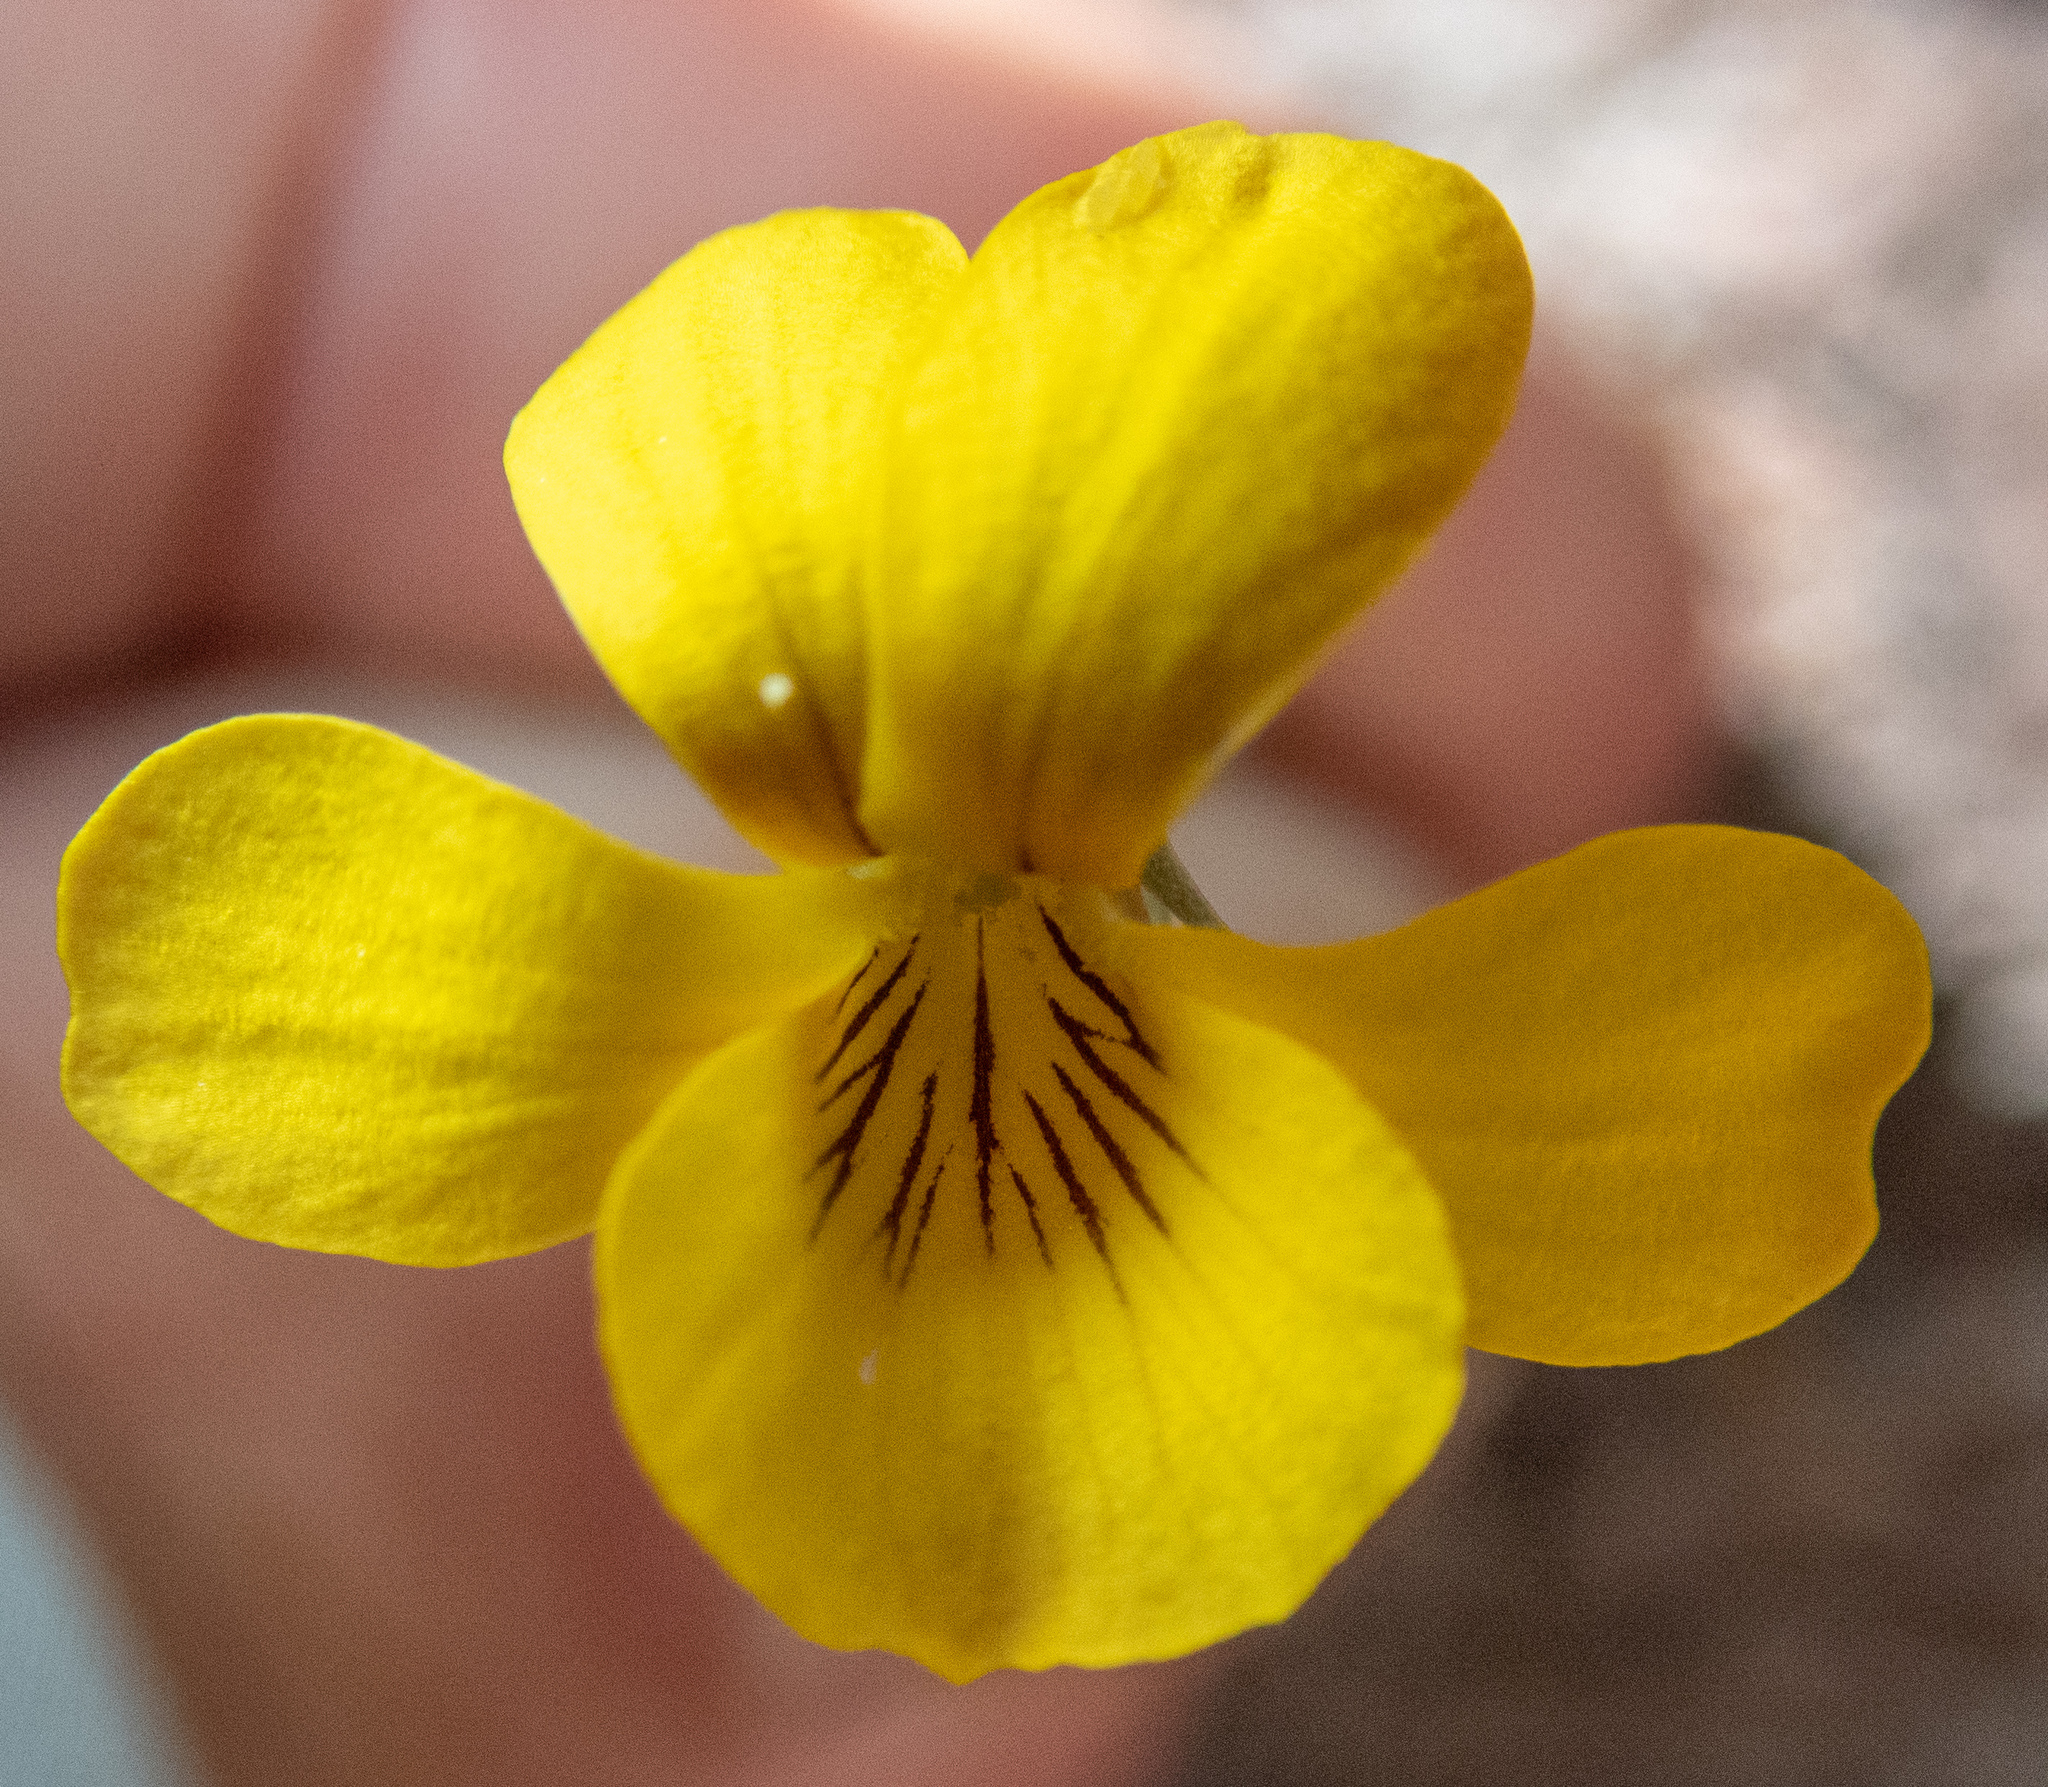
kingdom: Plantae
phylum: Tracheophyta
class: Magnoliopsida
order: Malpighiales
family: Violaceae
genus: Viola
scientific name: Viola pinetorum
